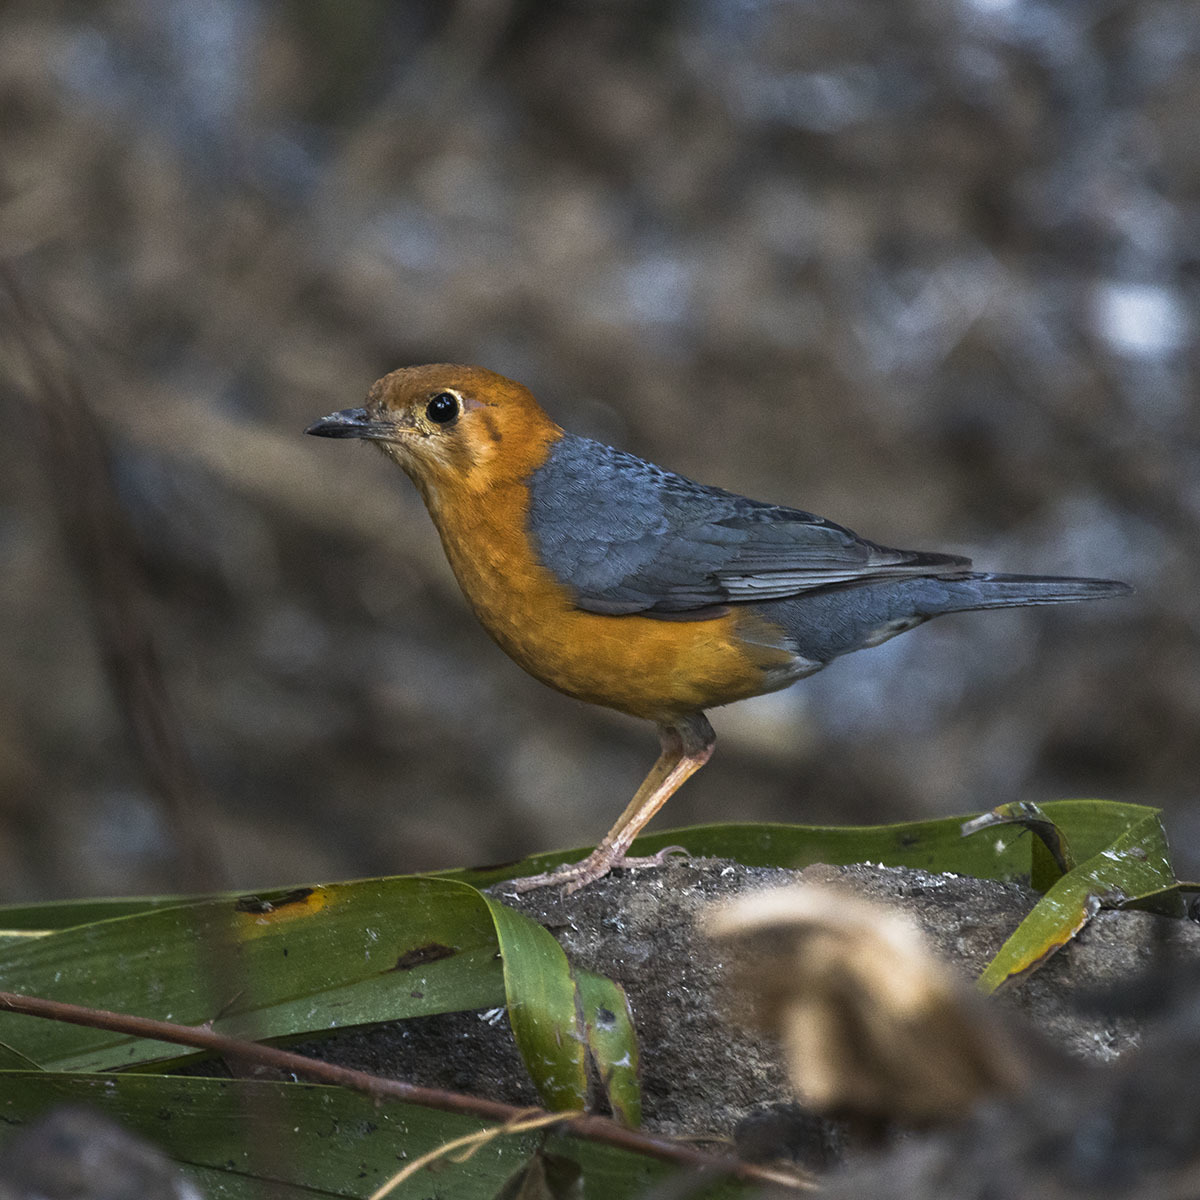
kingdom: Animalia
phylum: Chordata
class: Aves
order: Passeriformes
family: Turdidae
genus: Geokichla
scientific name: Geokichla citrina
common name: Orange-headed thrush
